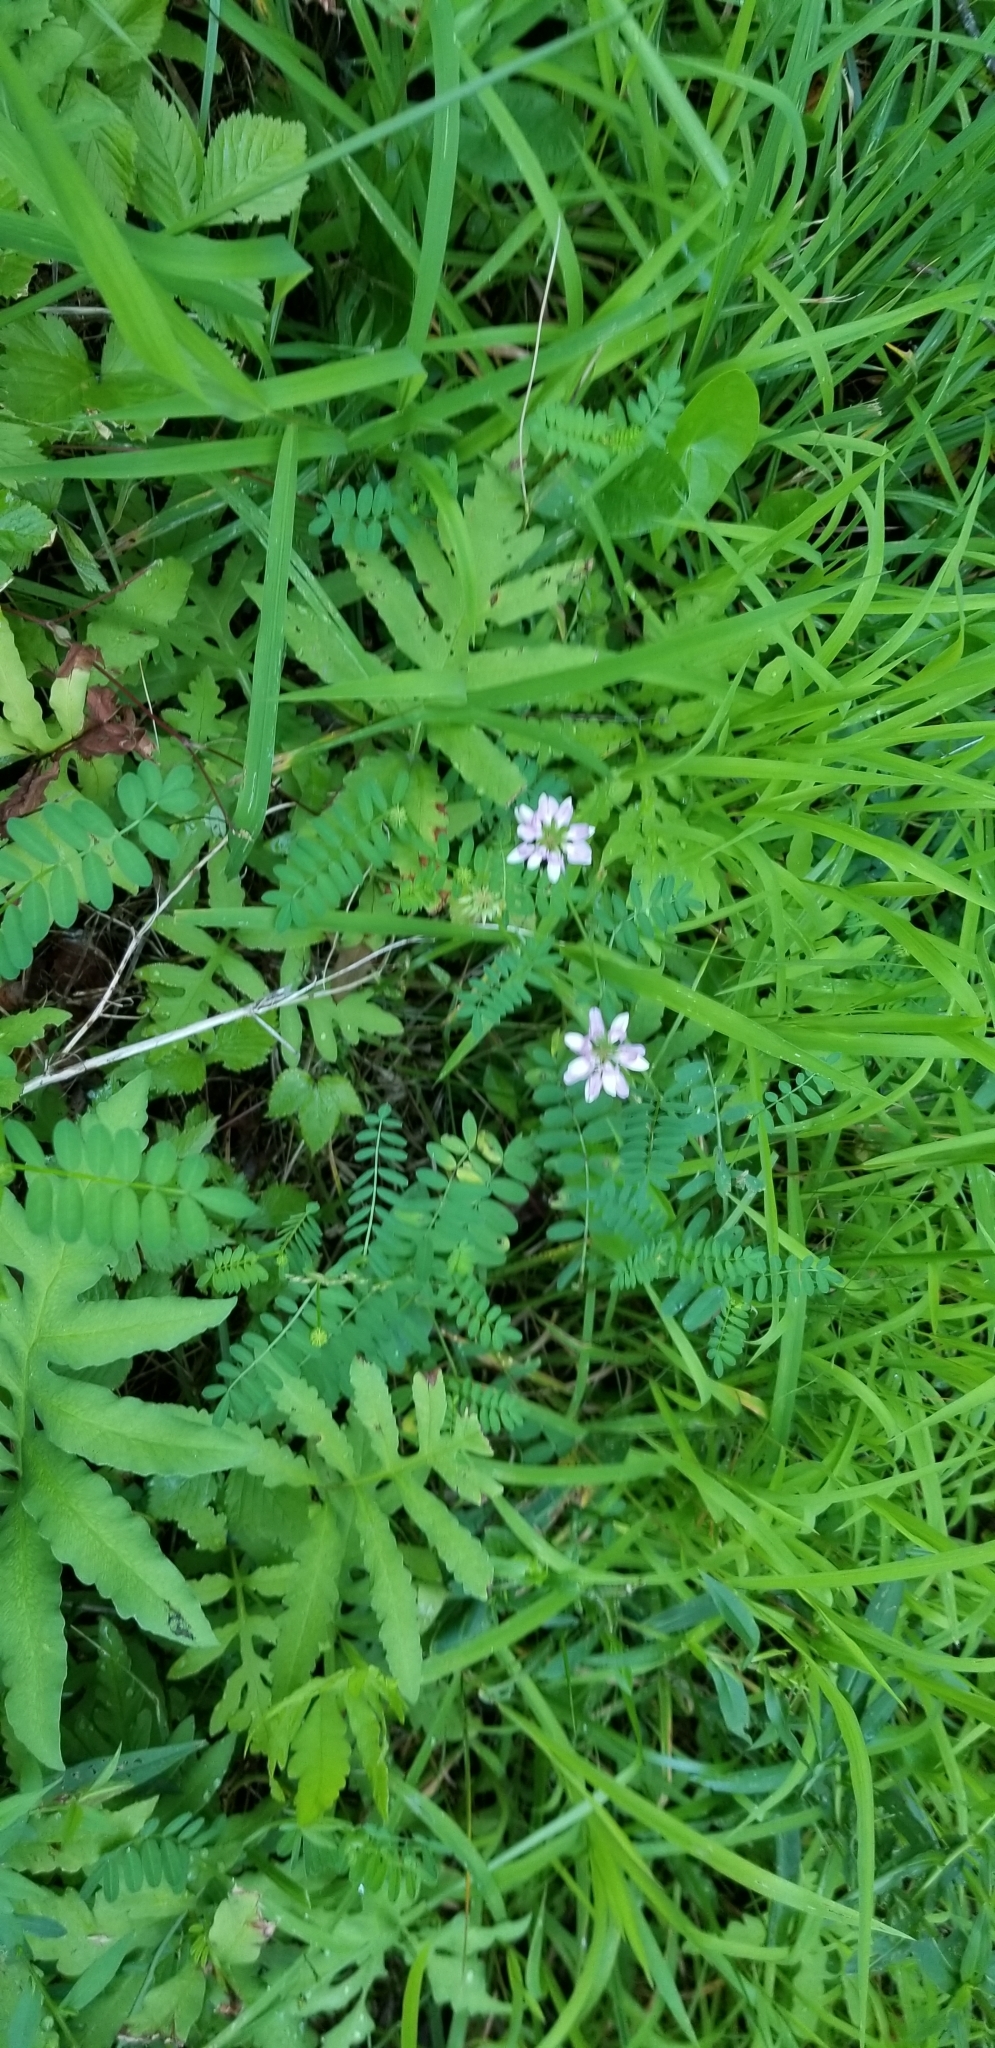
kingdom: Plantae
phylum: Tracheophyta
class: Magnoliopsida
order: Fabales
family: Fabaceae
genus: Coronilla
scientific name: Coronilla varia
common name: Crownvetch
